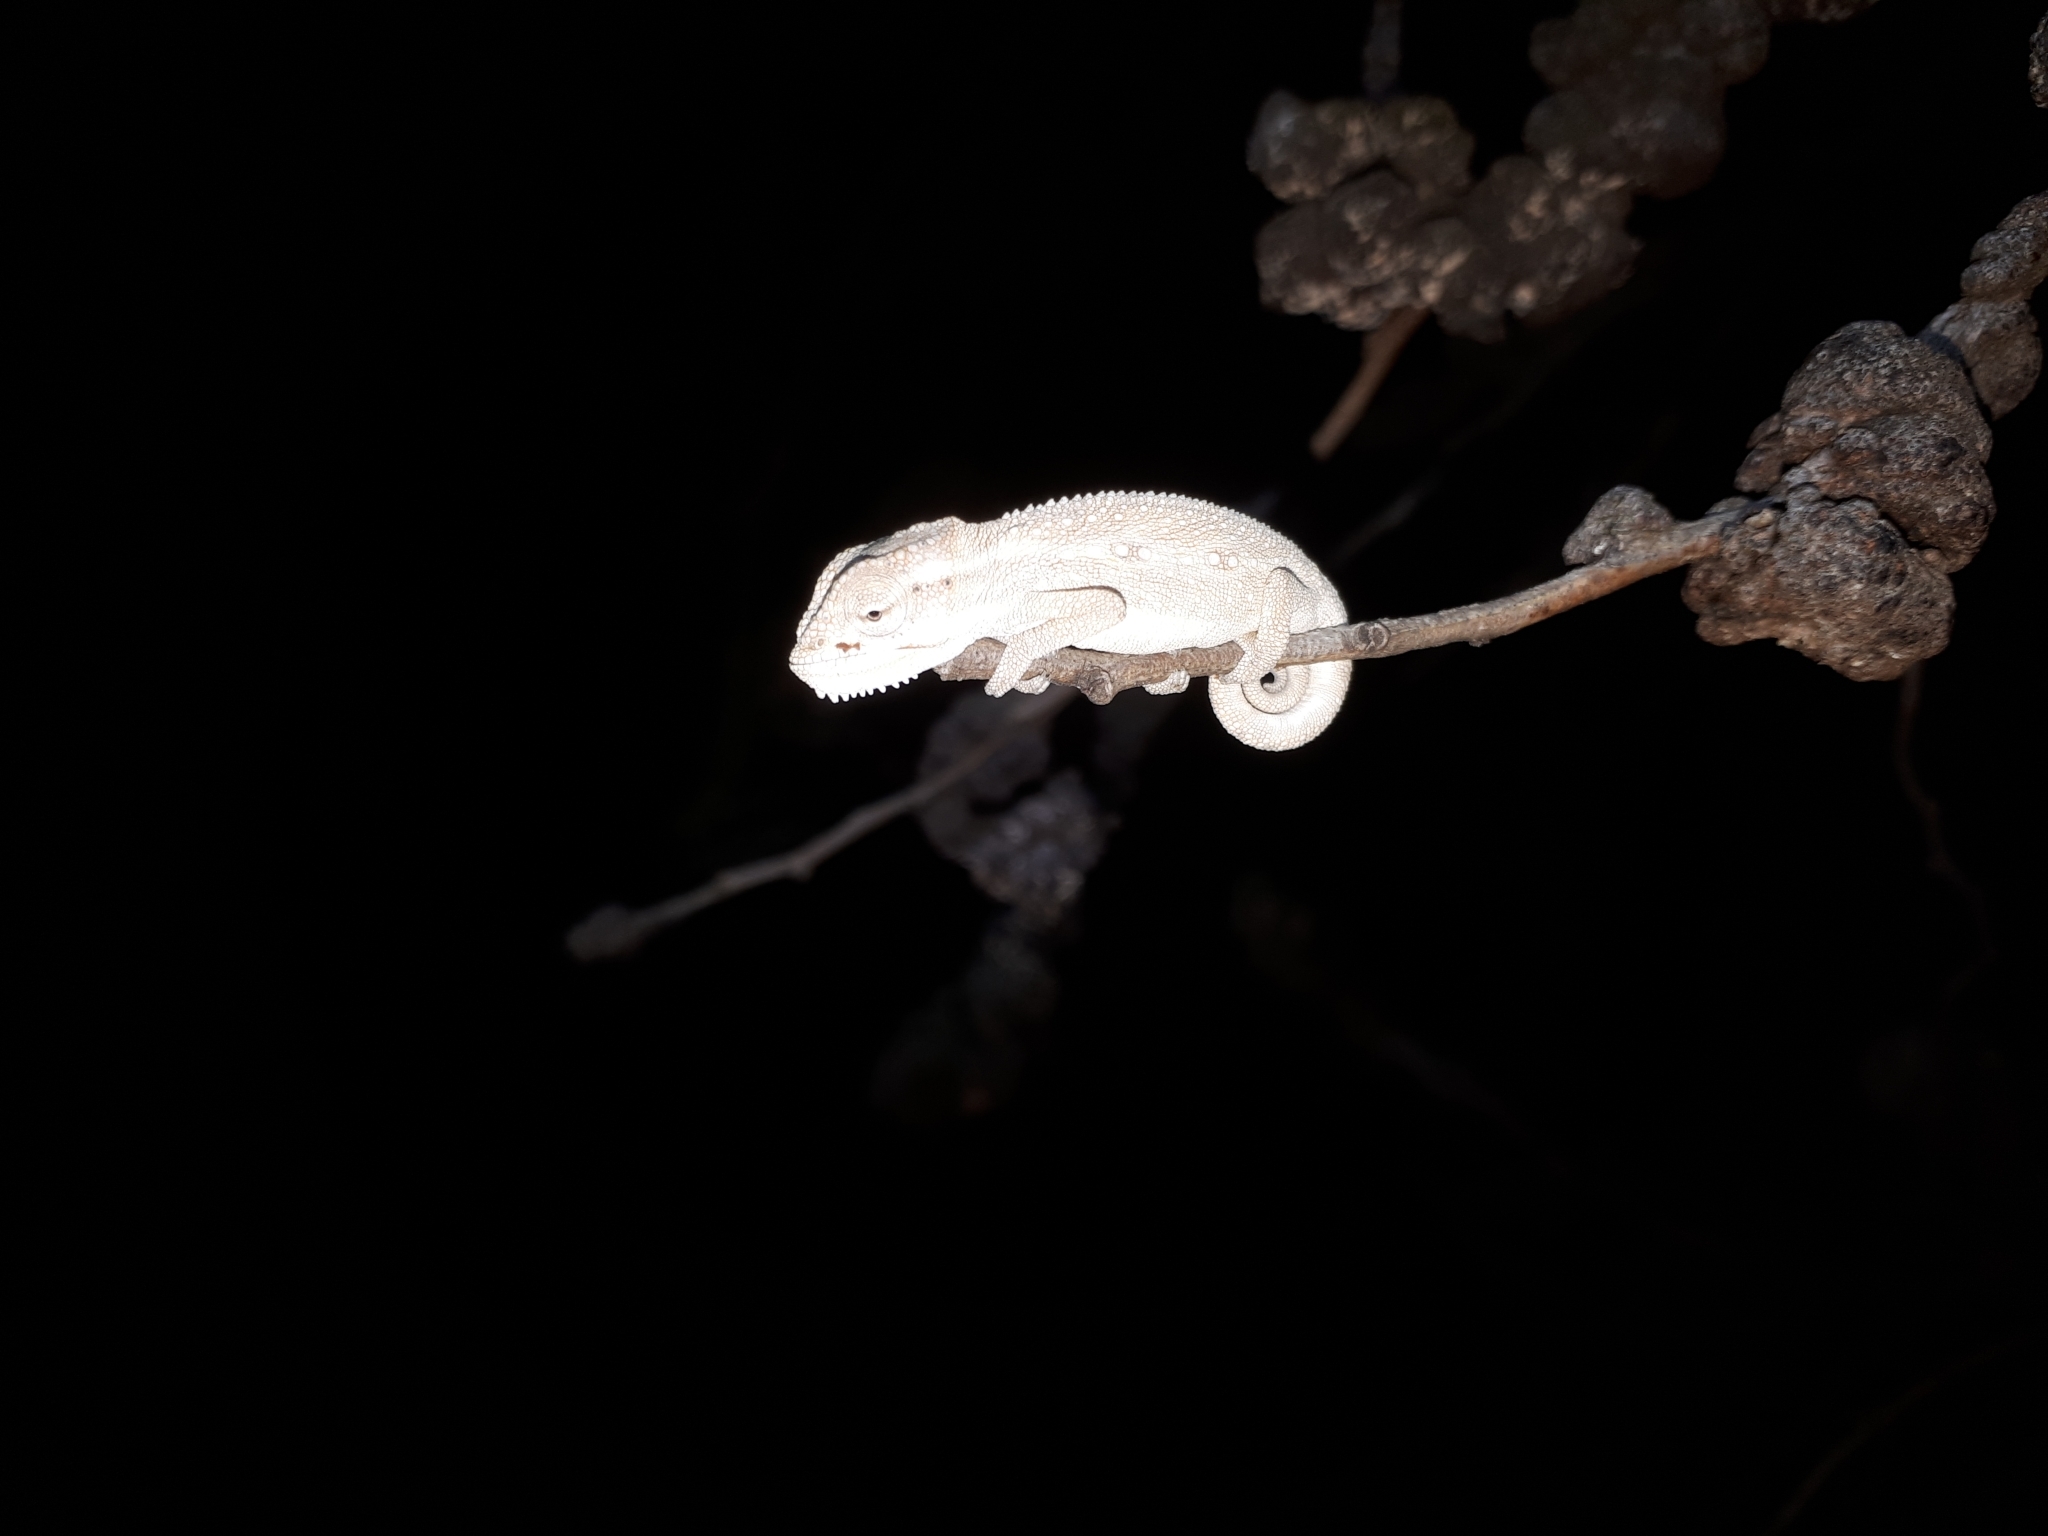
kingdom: Animalia
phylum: Chordata
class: Squamata
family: Chamaeleonidae
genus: Bradypodion
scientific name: Bradypodion pumilum
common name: Cape dwarf chameleon
